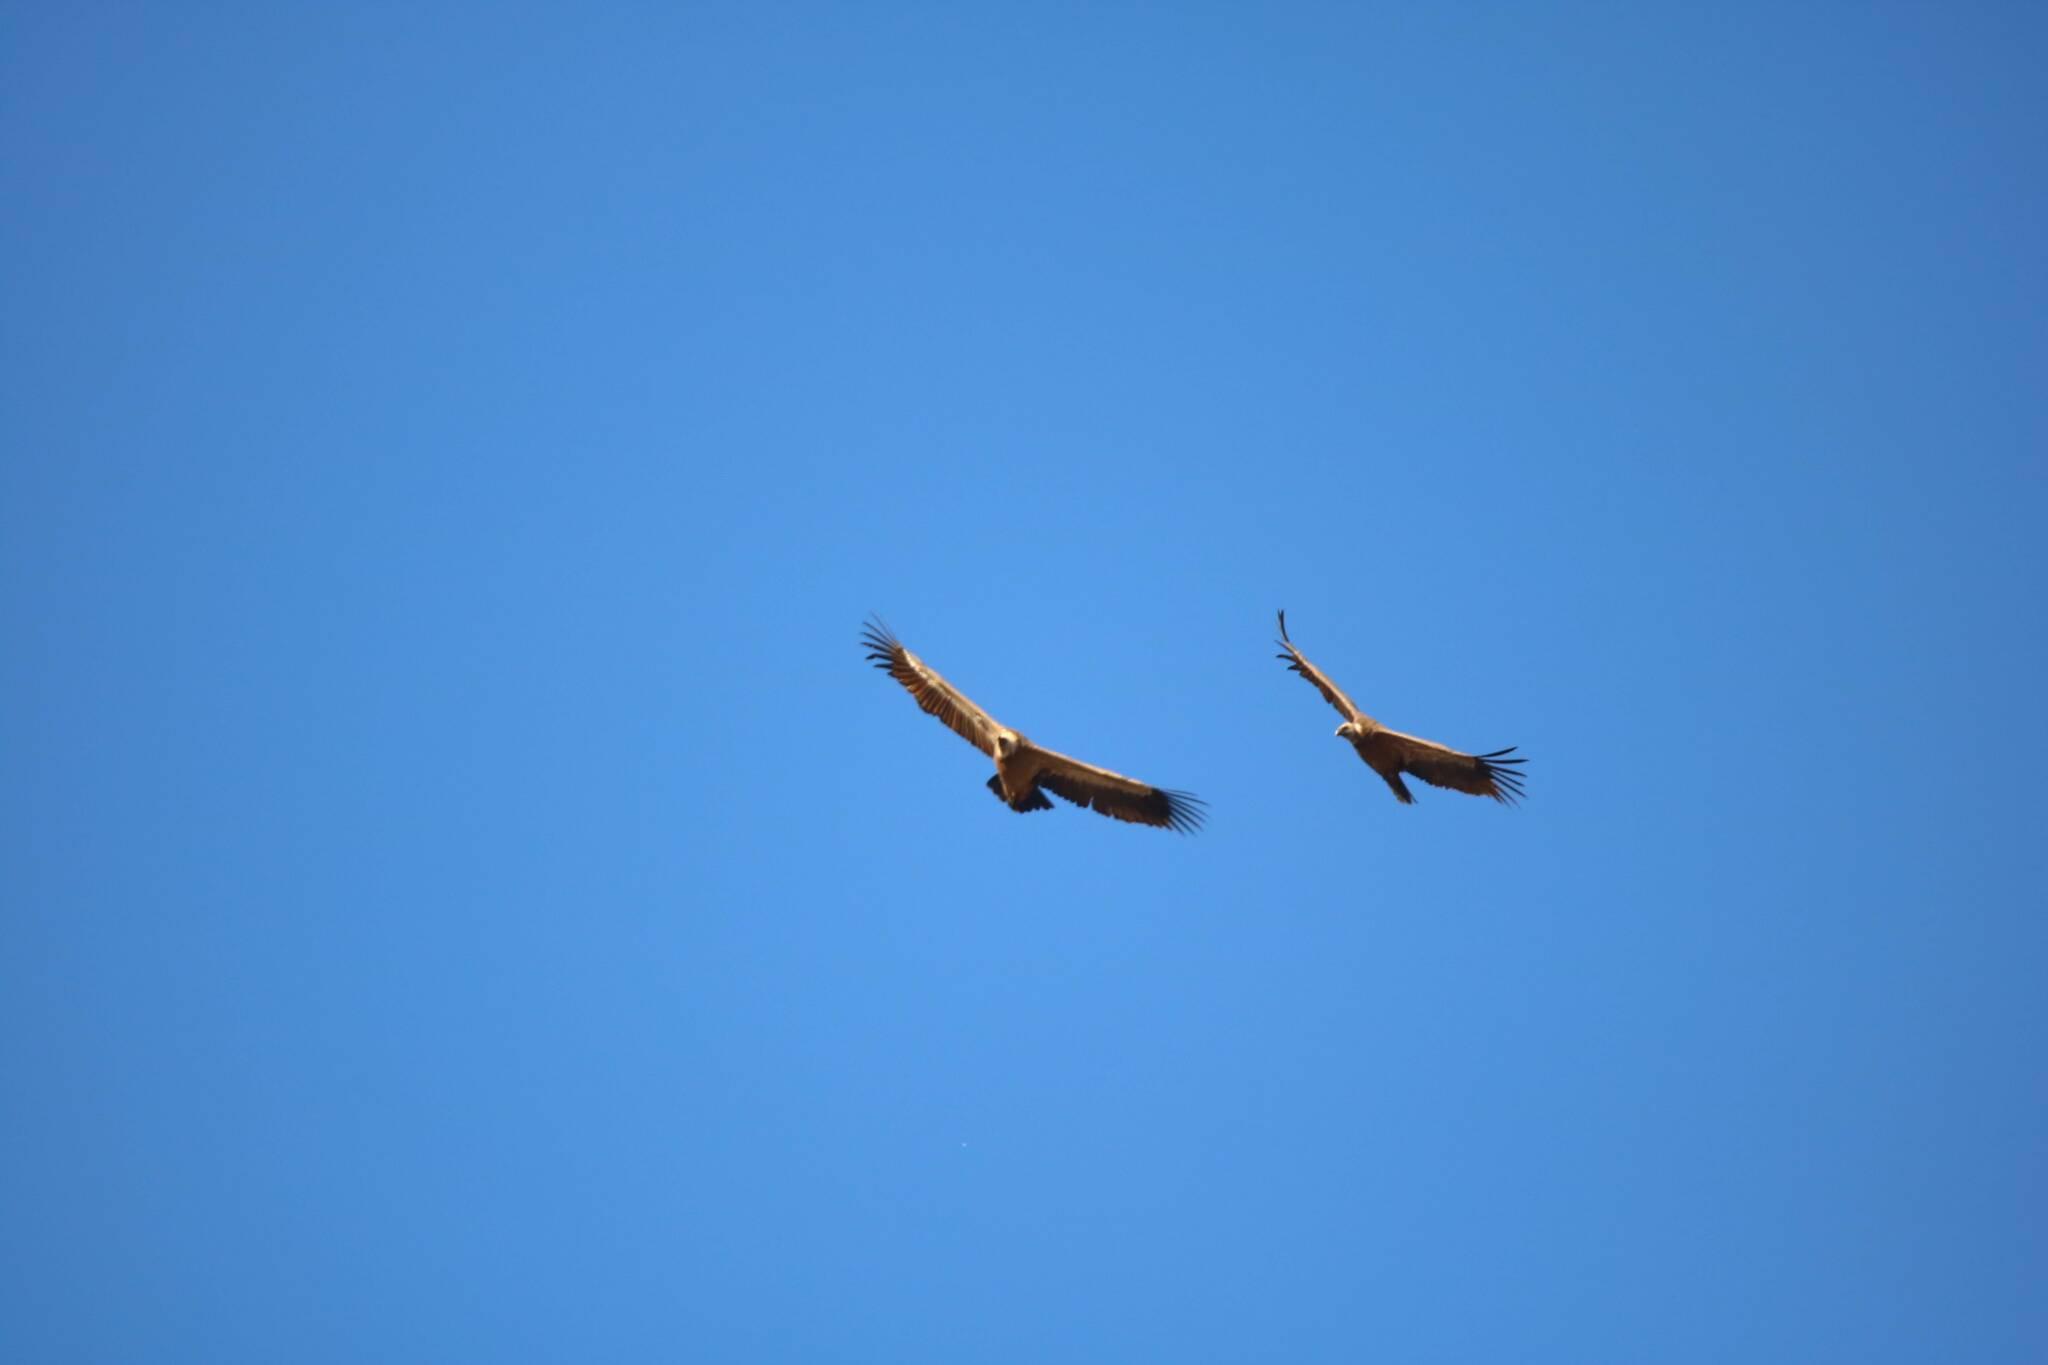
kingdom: Animalia
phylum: Chordata
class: Aves
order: Accipitriformes
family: Accipitridae
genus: Gyps
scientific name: Gyps fulvus
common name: Griffon vulture
